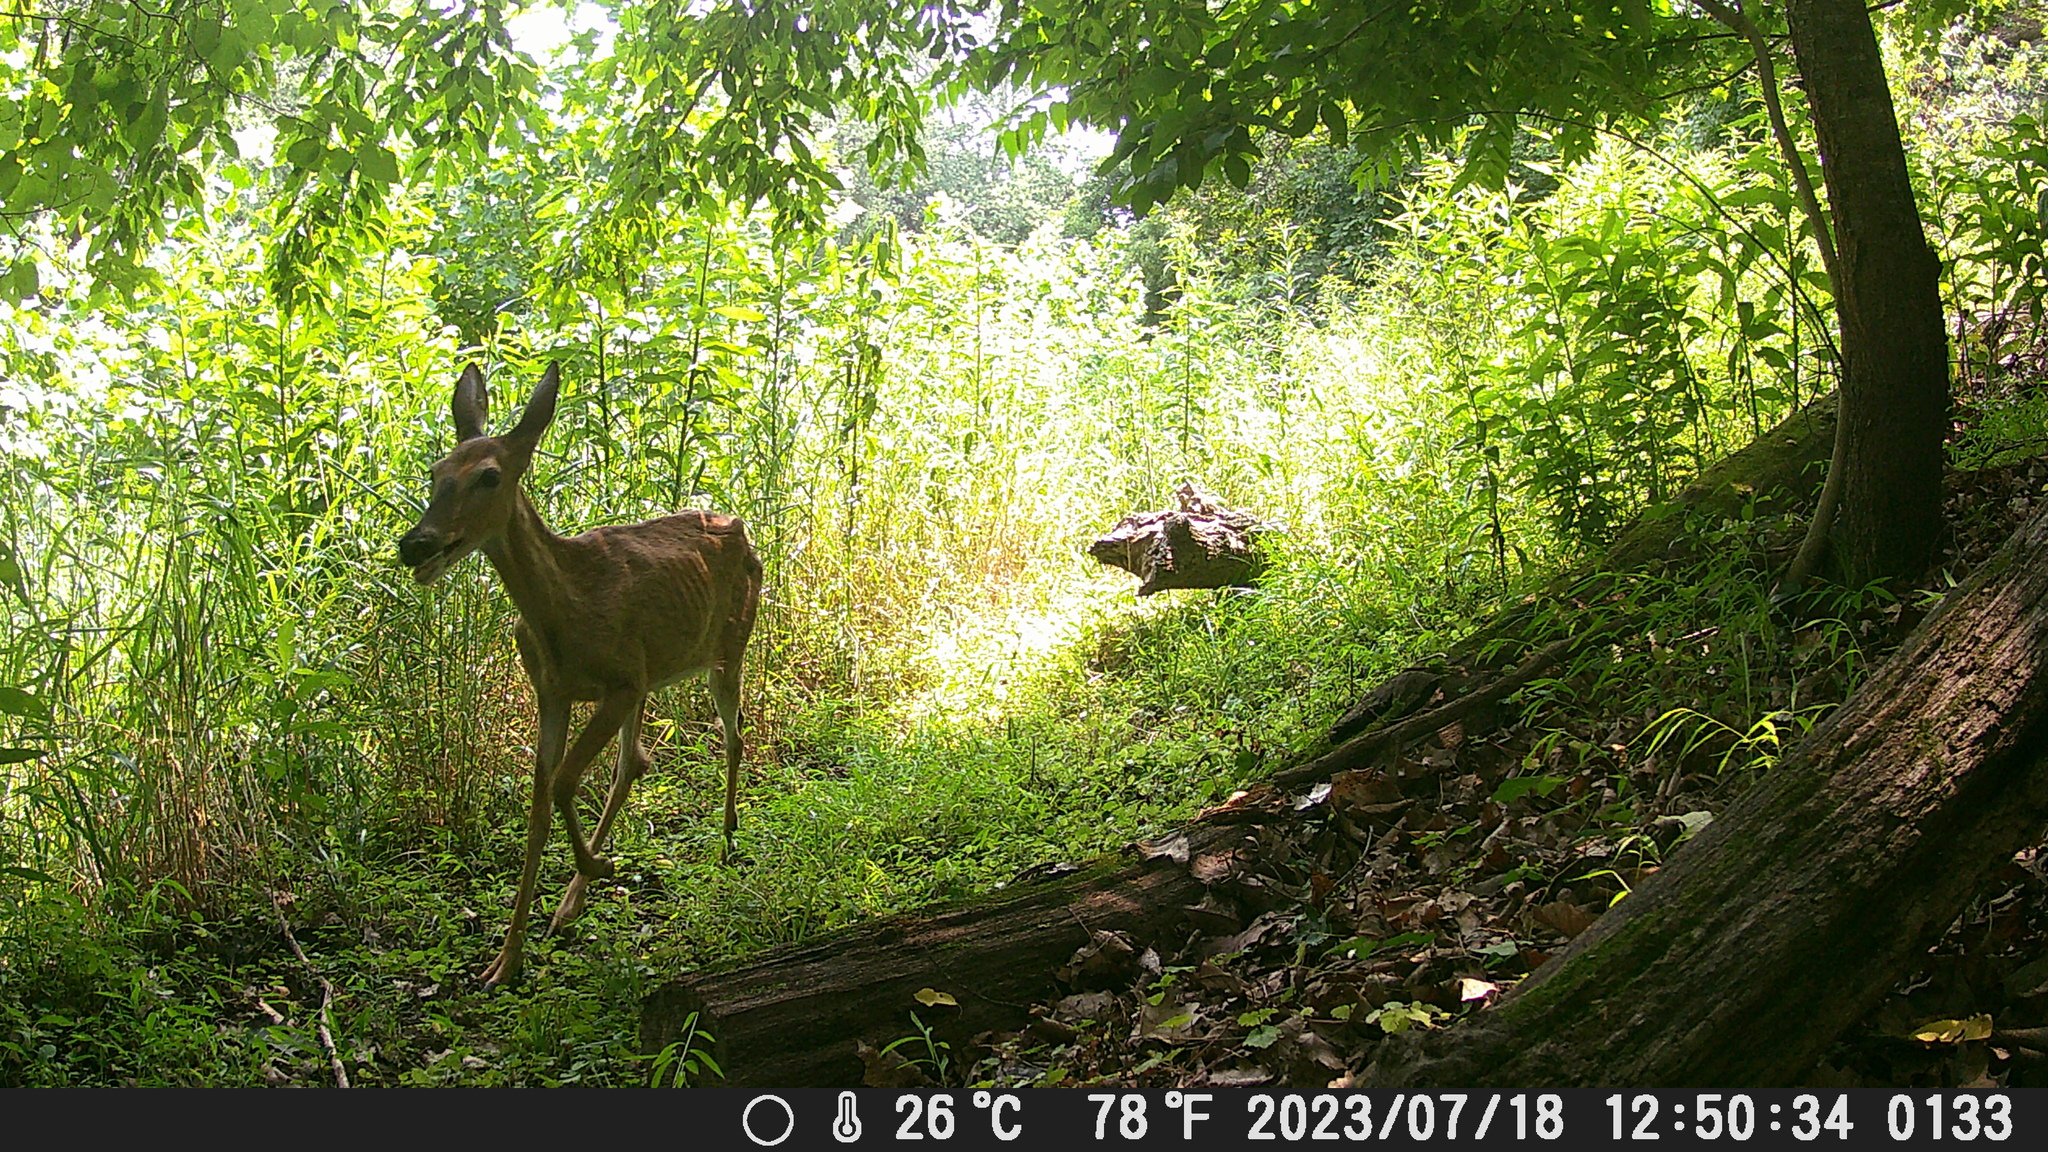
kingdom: Animalia
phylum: Chordata
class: Mammalia
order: Artiodactyla
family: Cervidae
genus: Odocoileus
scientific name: Odocoileus virginianus
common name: White-tailed deer
